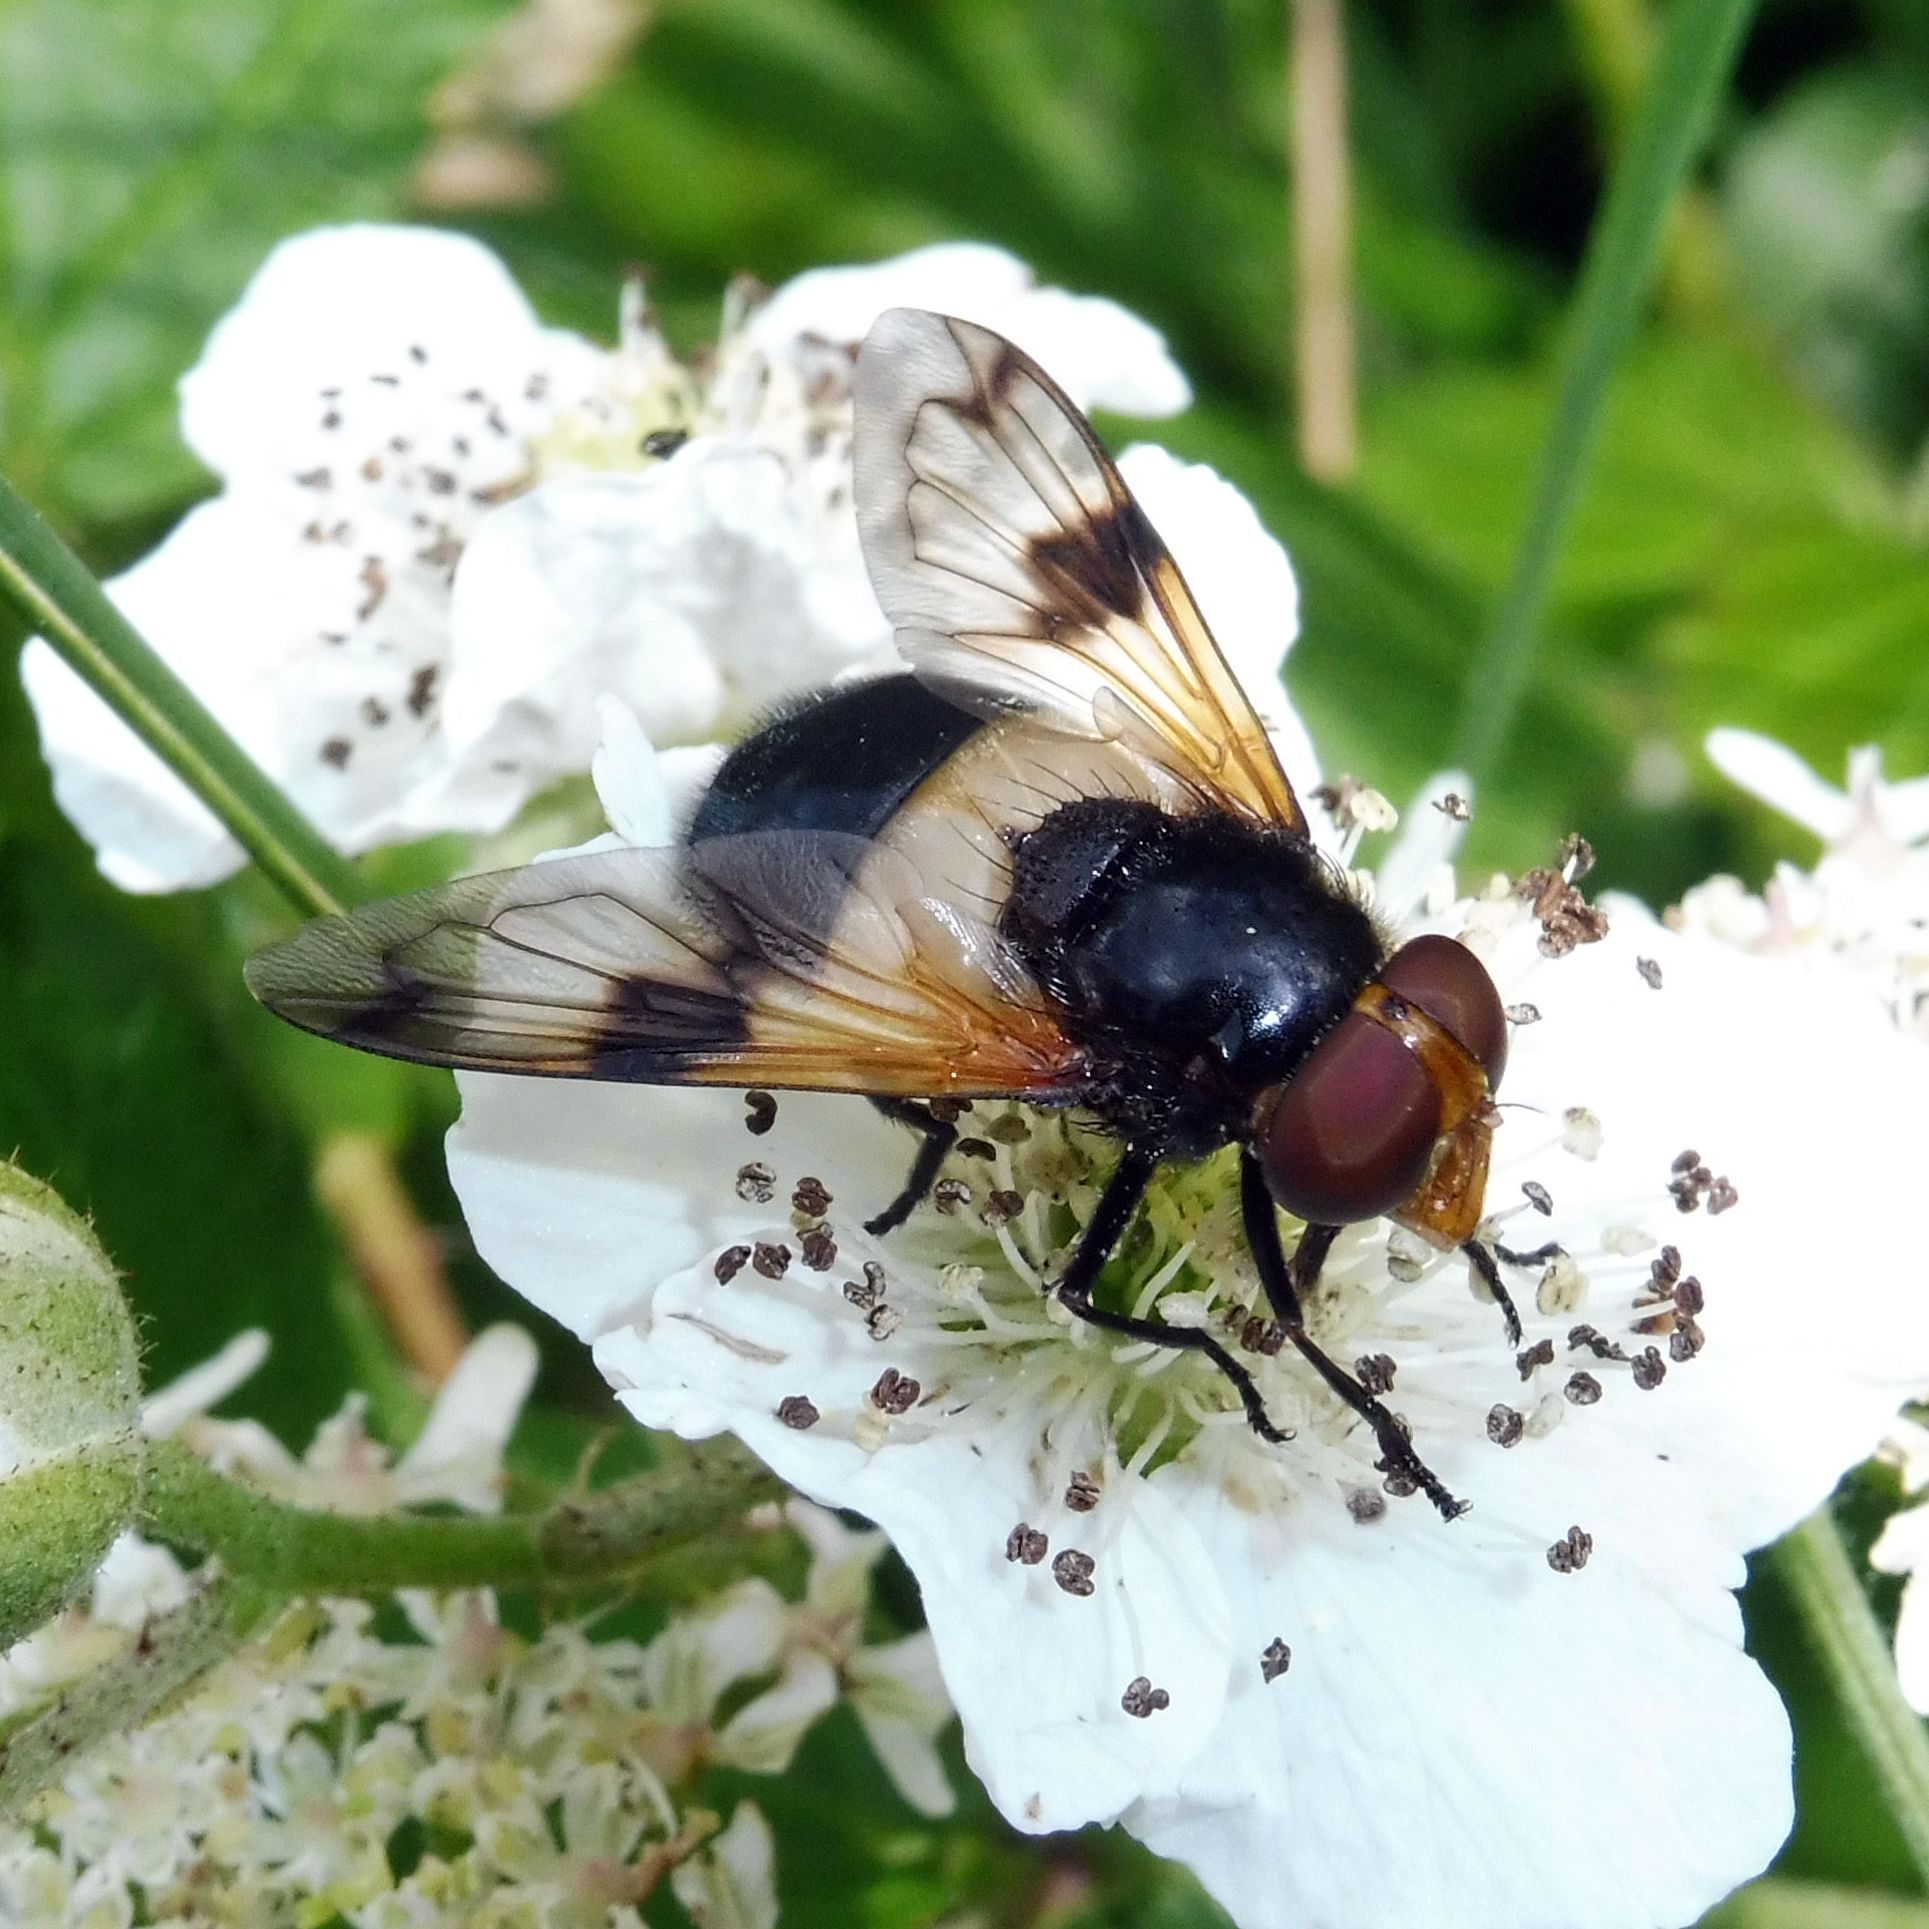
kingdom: Animalia
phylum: Arthropoda
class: Insecta
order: Diptera
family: Syrphidae
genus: Volucella
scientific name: Volucella pellucens
